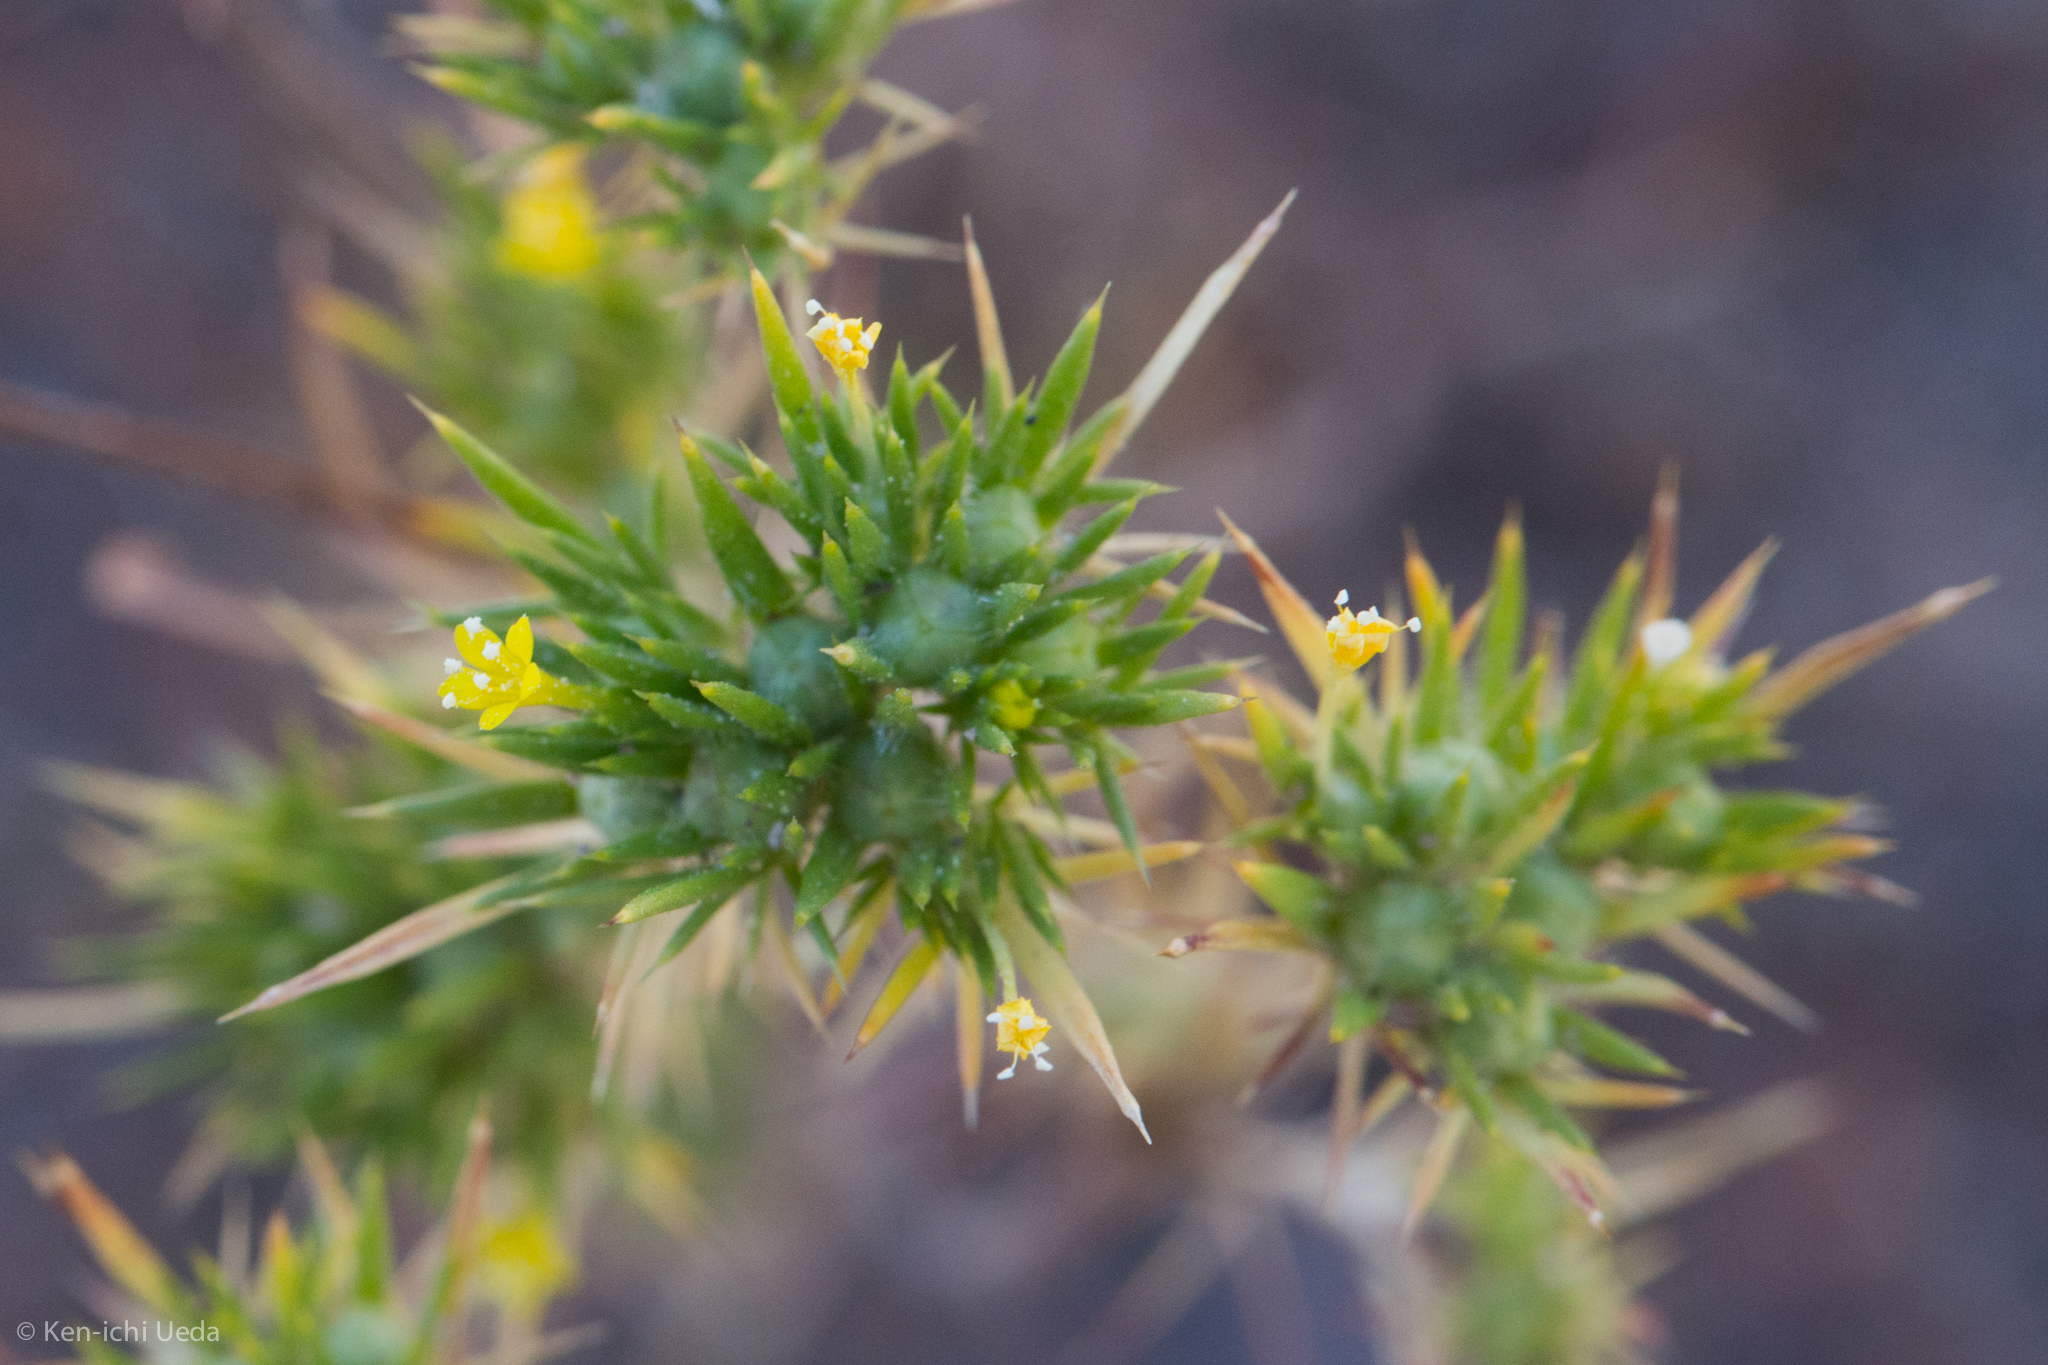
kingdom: Plantae
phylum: Tracheophyta
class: Magnoliopsida
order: Ericales
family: Polemoniaceae
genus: Navarretia
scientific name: Navarretia breweri
